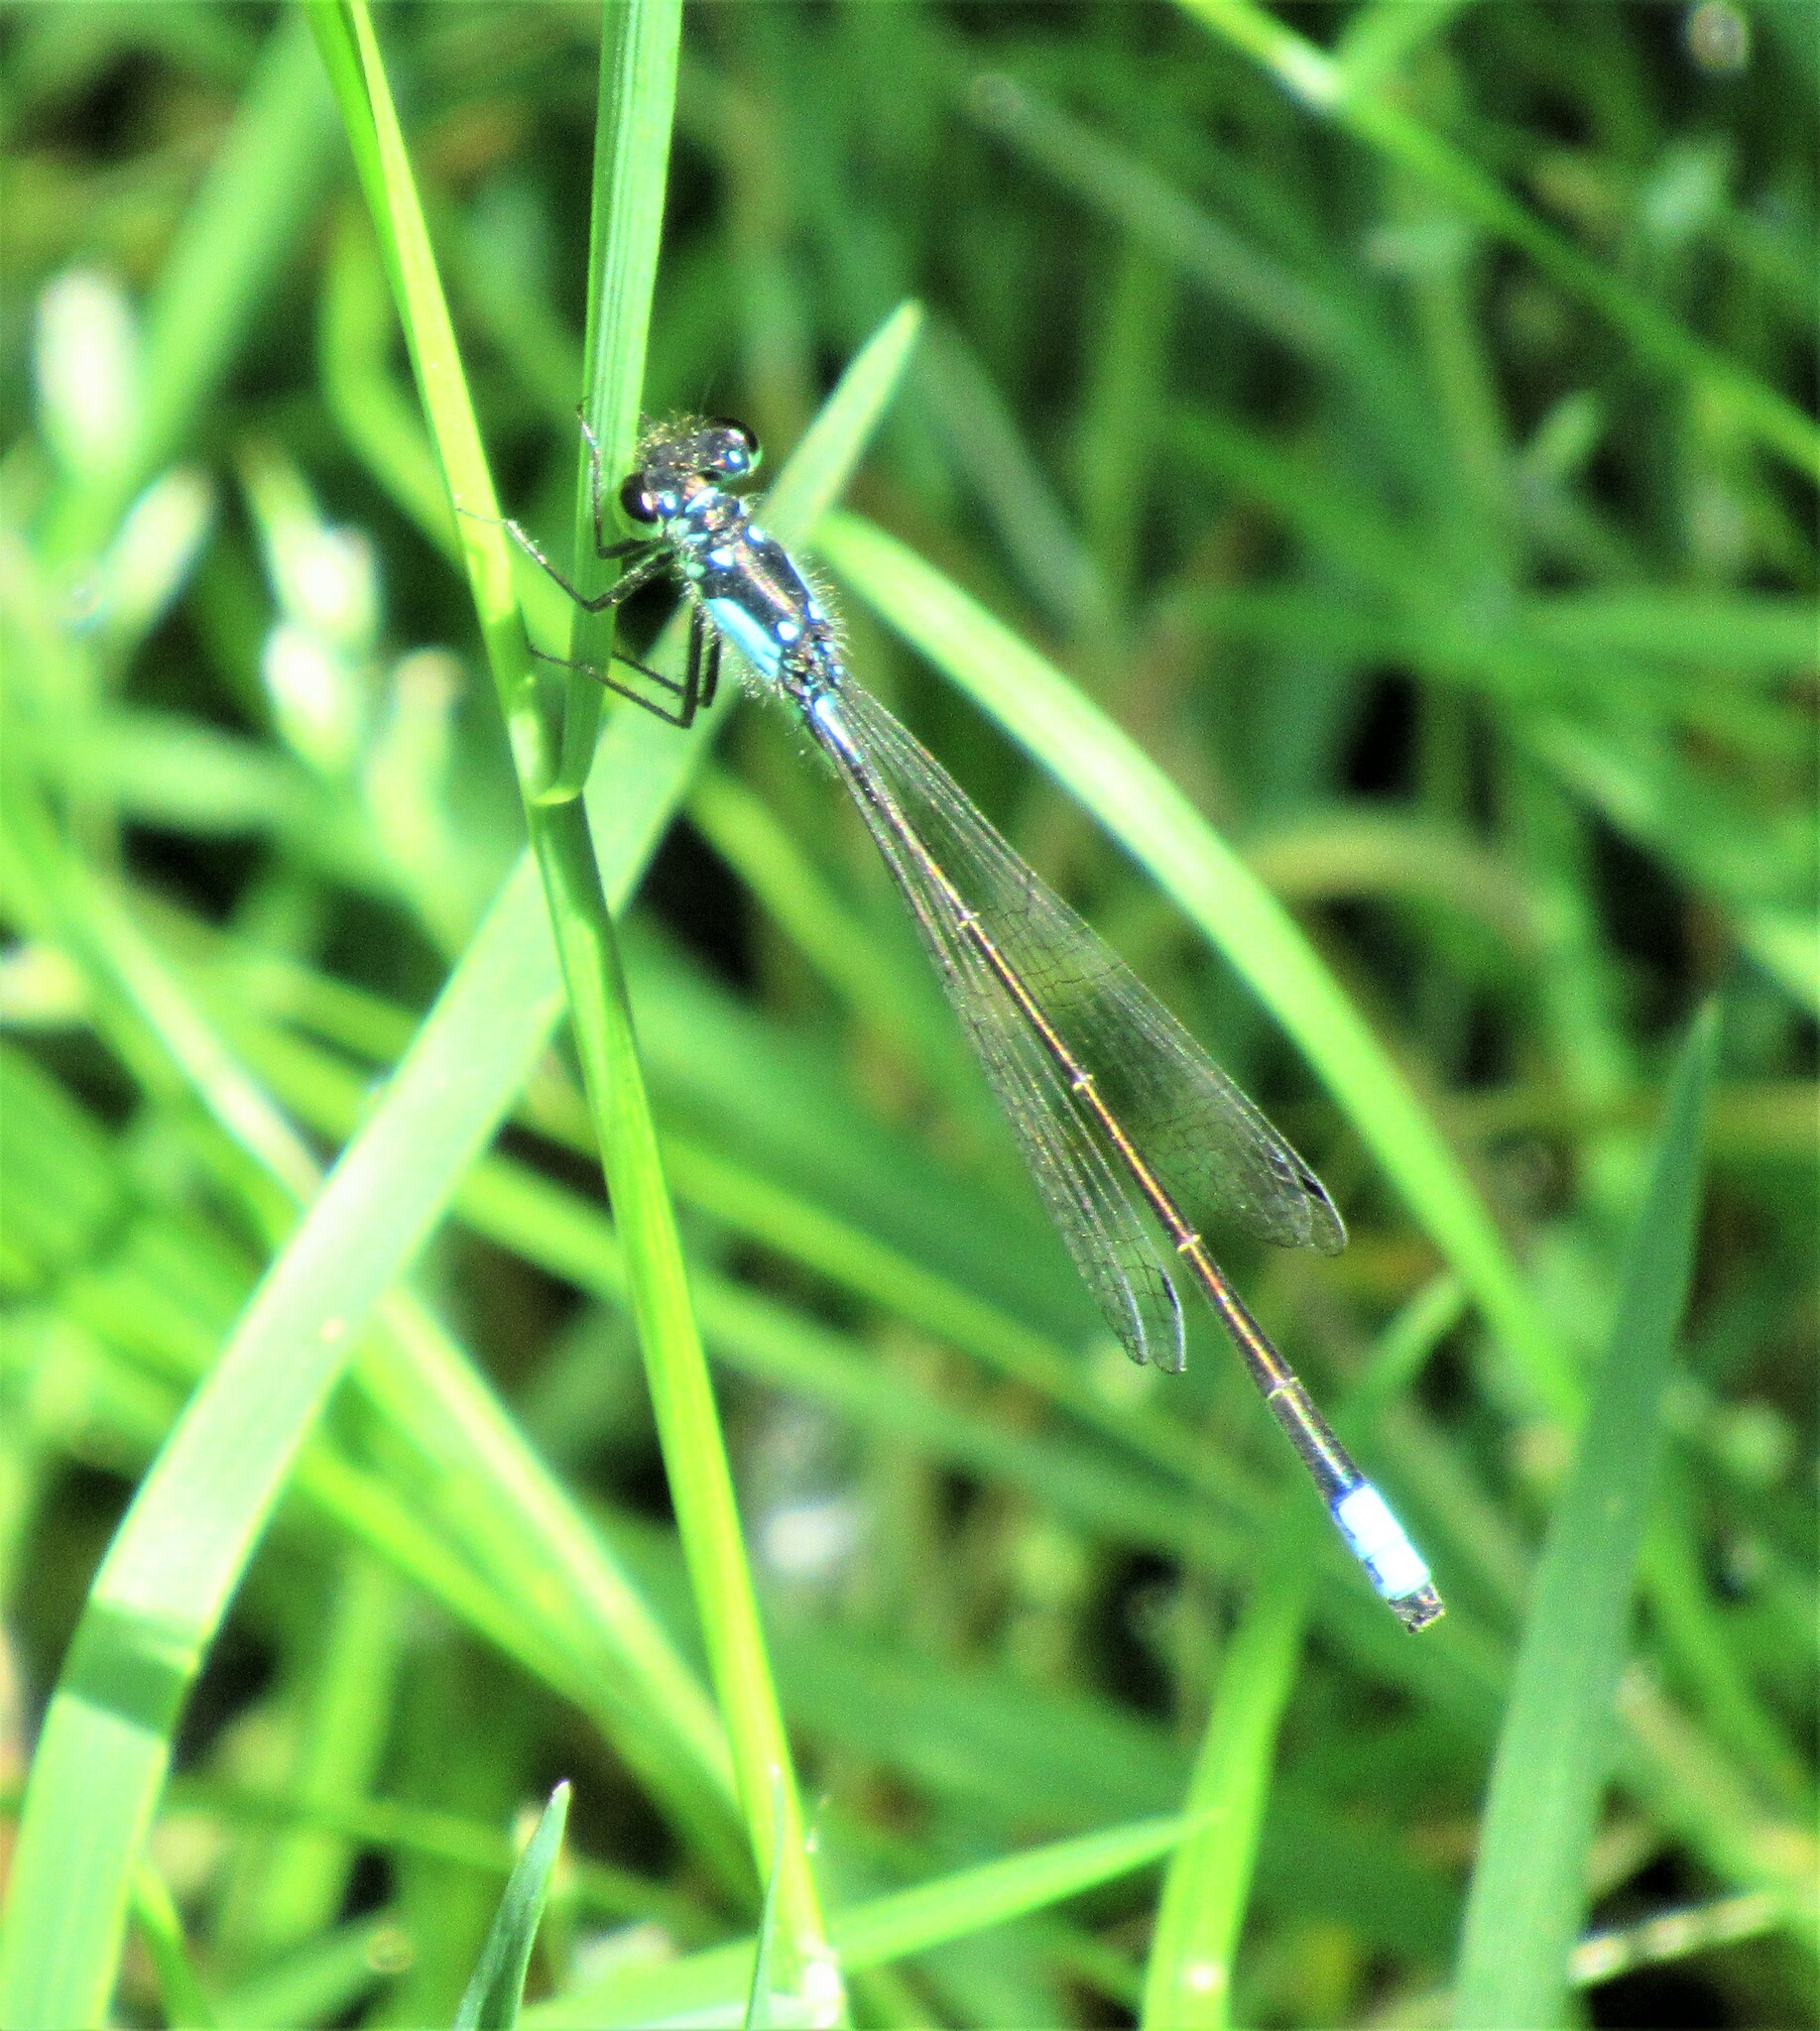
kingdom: Animalia
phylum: Arthropoda
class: Insecta
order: Odonata
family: Coenagrionidae
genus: Ischnura
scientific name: Ischnura cervula
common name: Pacific forktail
